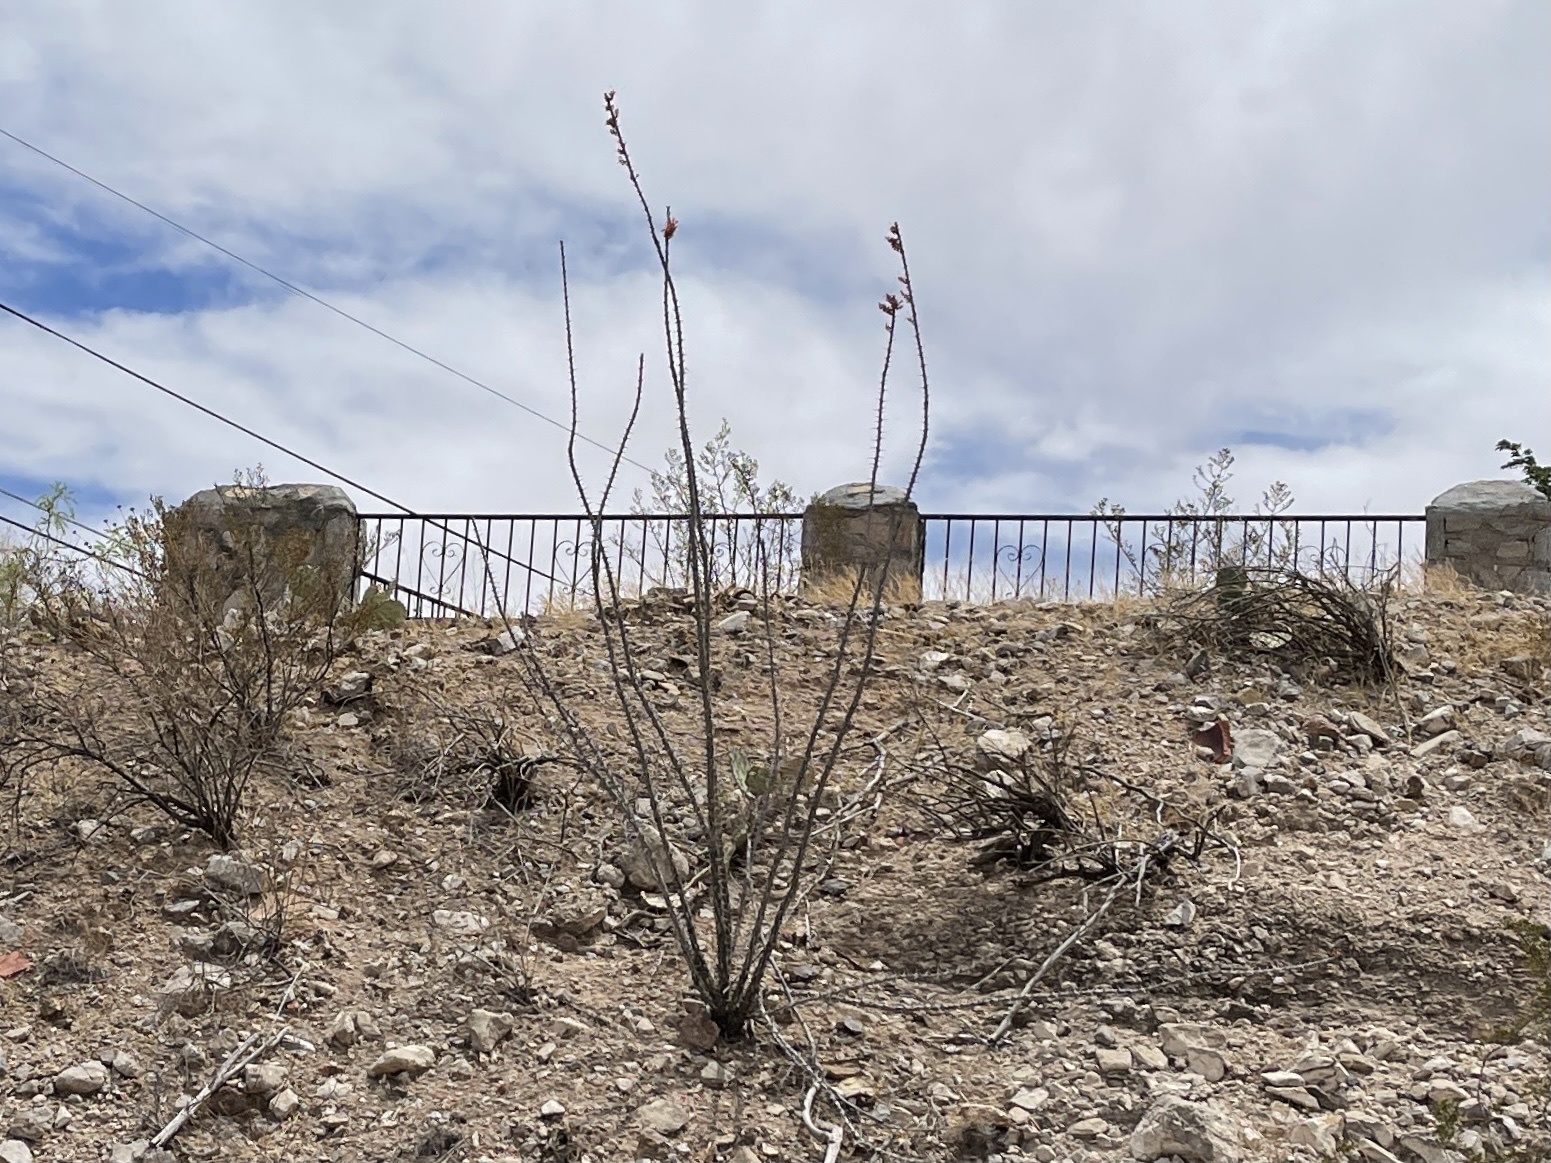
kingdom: Plantae
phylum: Tracheophyta
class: Magnoliopsida
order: Ericales
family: Fouquieriaceae
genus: Fouquieria
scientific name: Fouquieria splendens
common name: Vine-cactus
